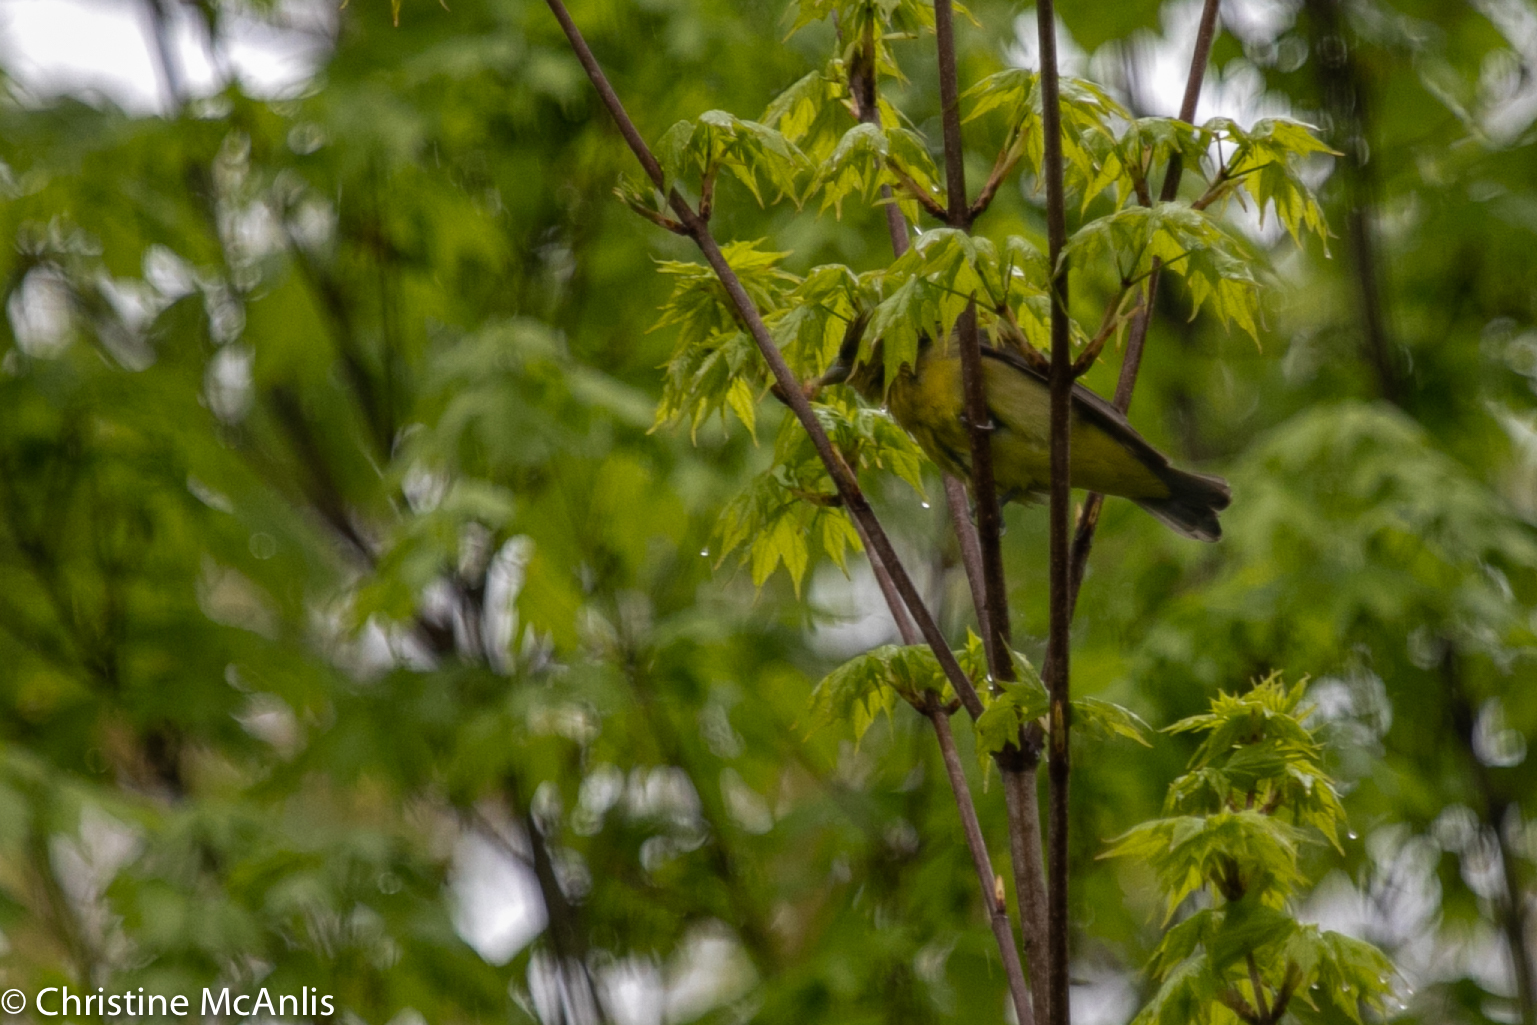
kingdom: Animalia
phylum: Chordata
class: Aves
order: Passeriformes
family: Cardinalidae
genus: Piranga
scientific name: Piranga olivacea
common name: Scarlet tanager
